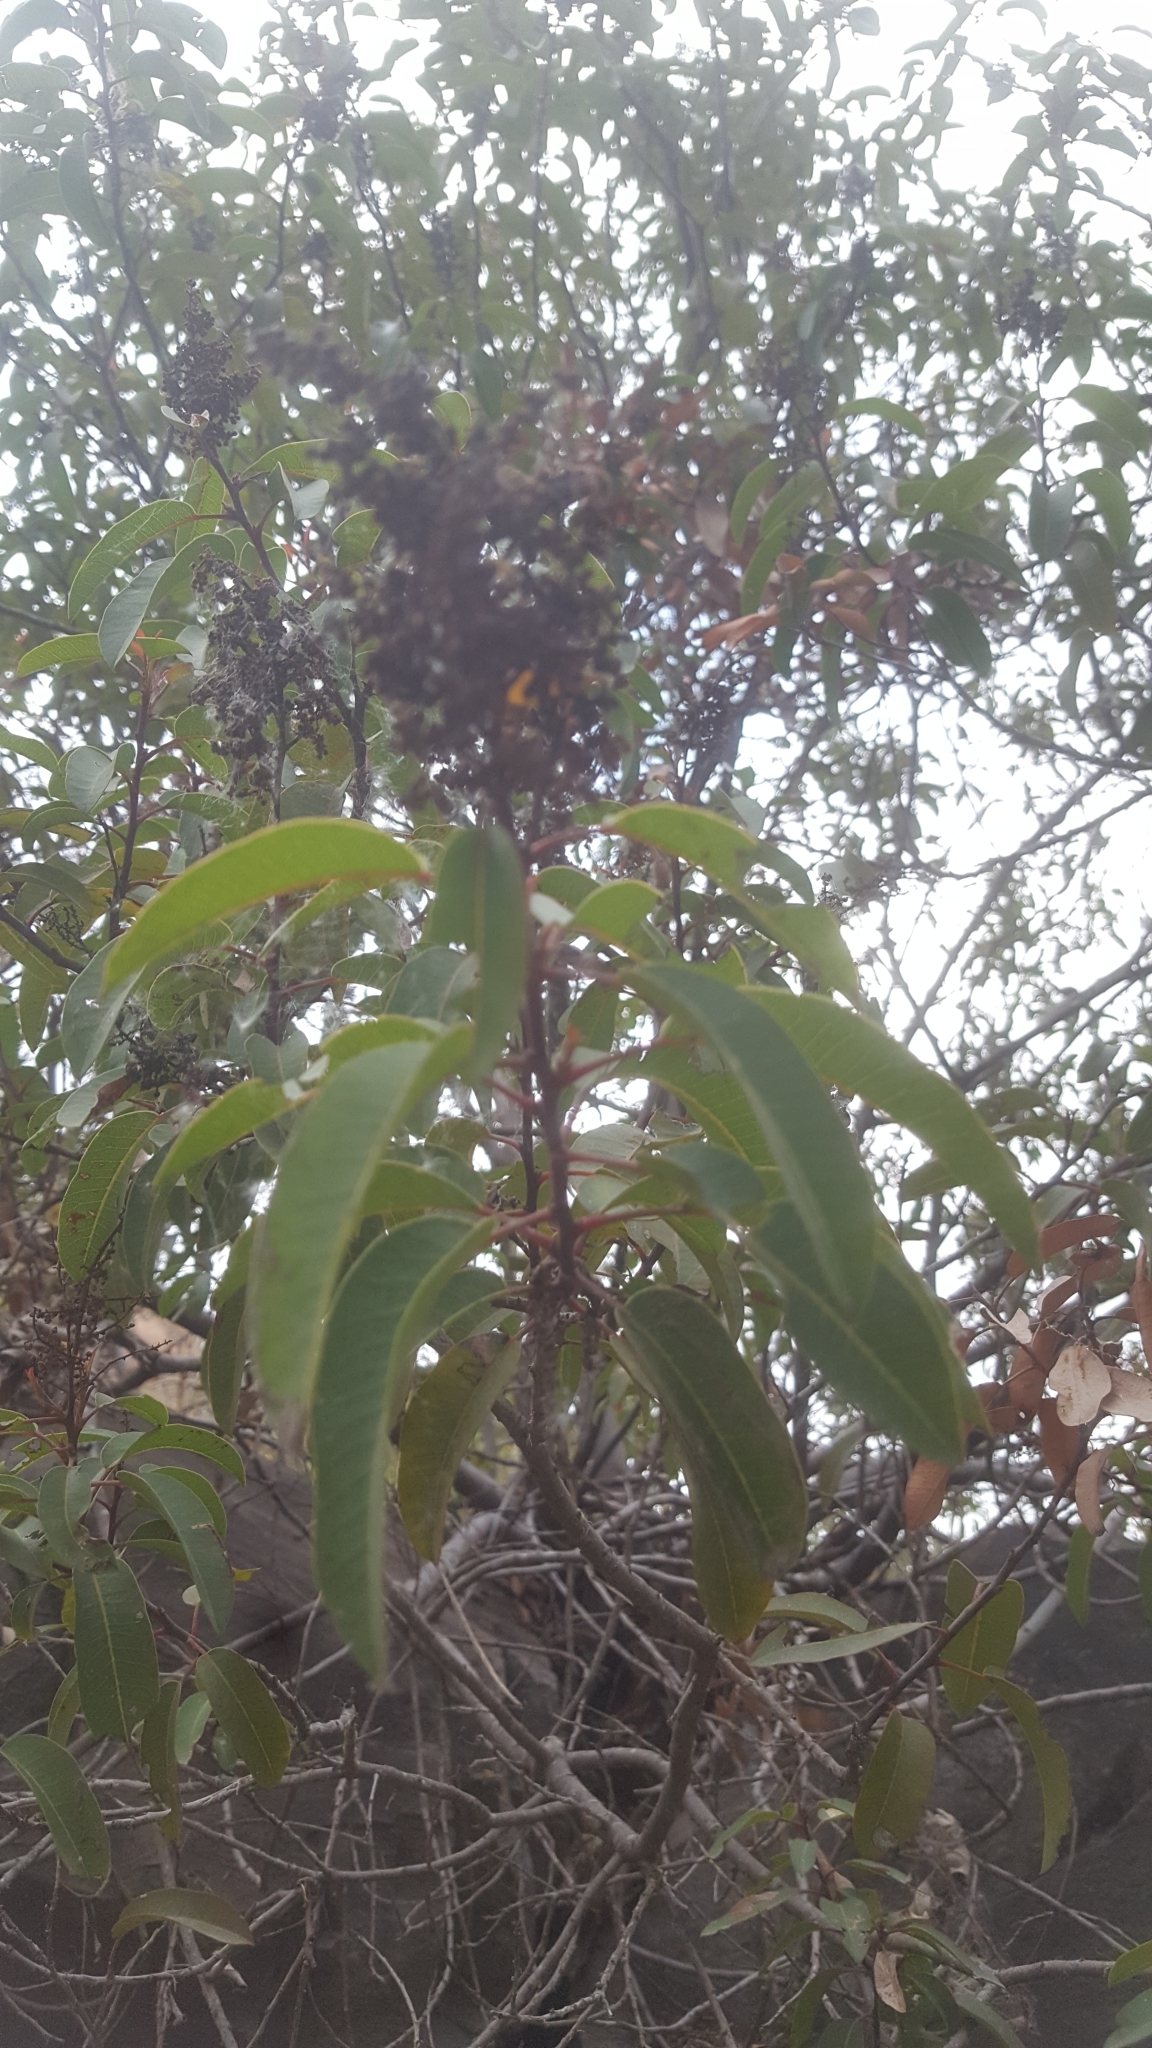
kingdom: Plantae
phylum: Tracheophyta
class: Magnoliopsida
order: Sapindales
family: Anacardiaceae
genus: Malosma
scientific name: Malosma laurina
